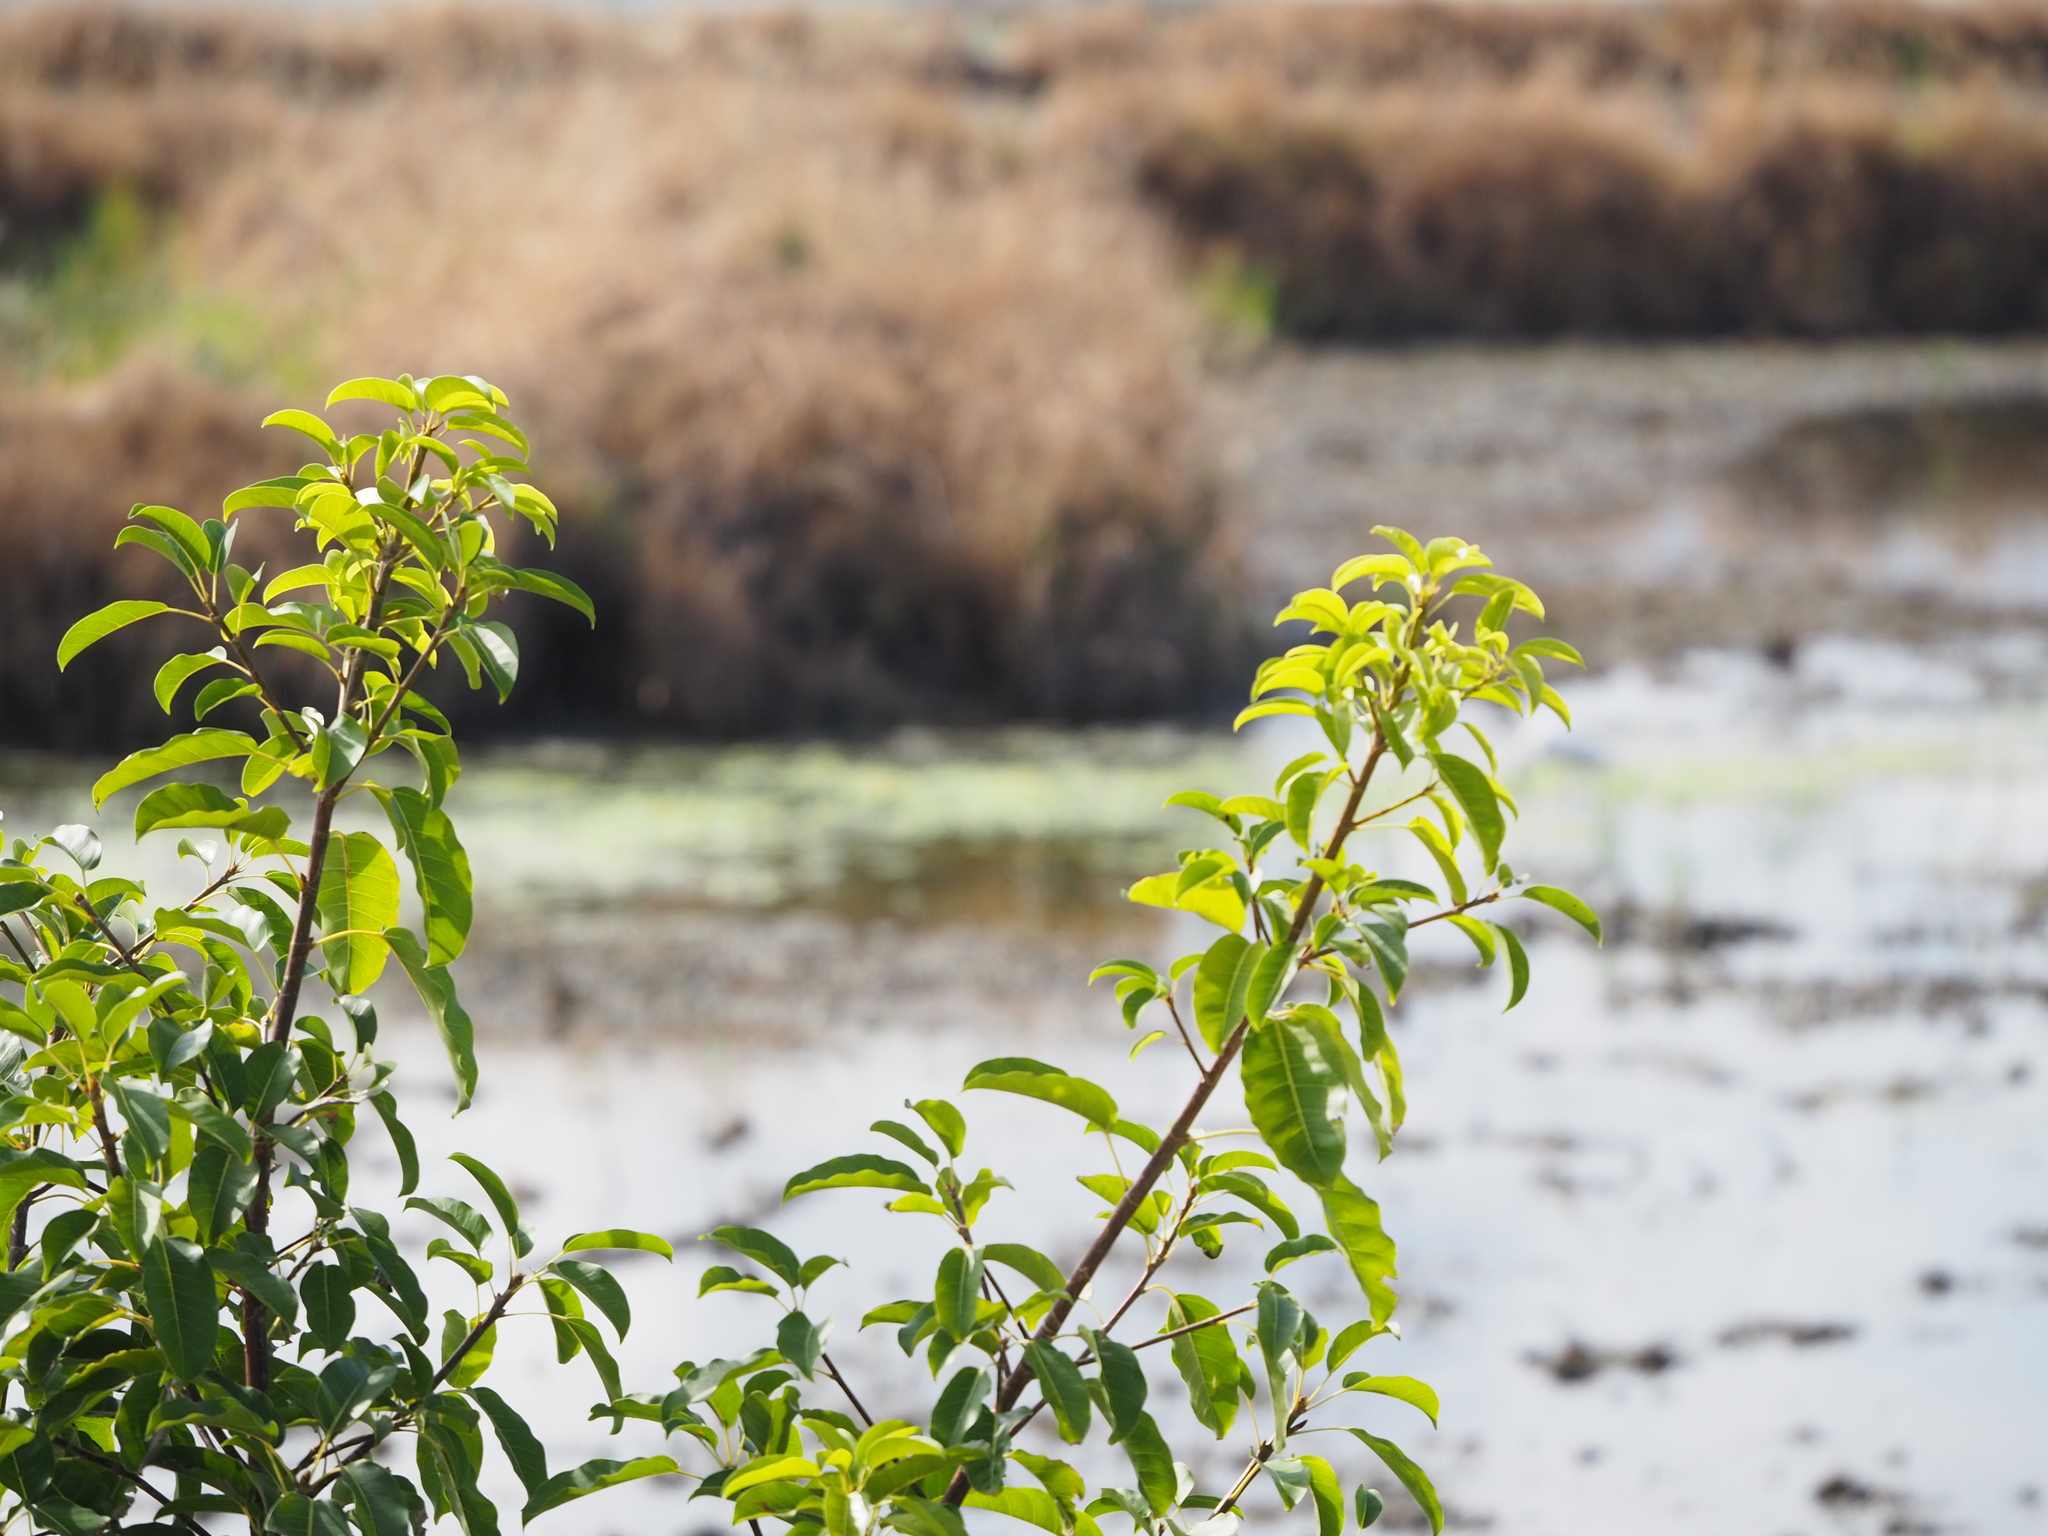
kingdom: Plantae
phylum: Tracheophyta
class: Magnoliopsida
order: Rosales
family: Moraceae
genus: Ficus
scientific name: Ficus subpisocarpa
